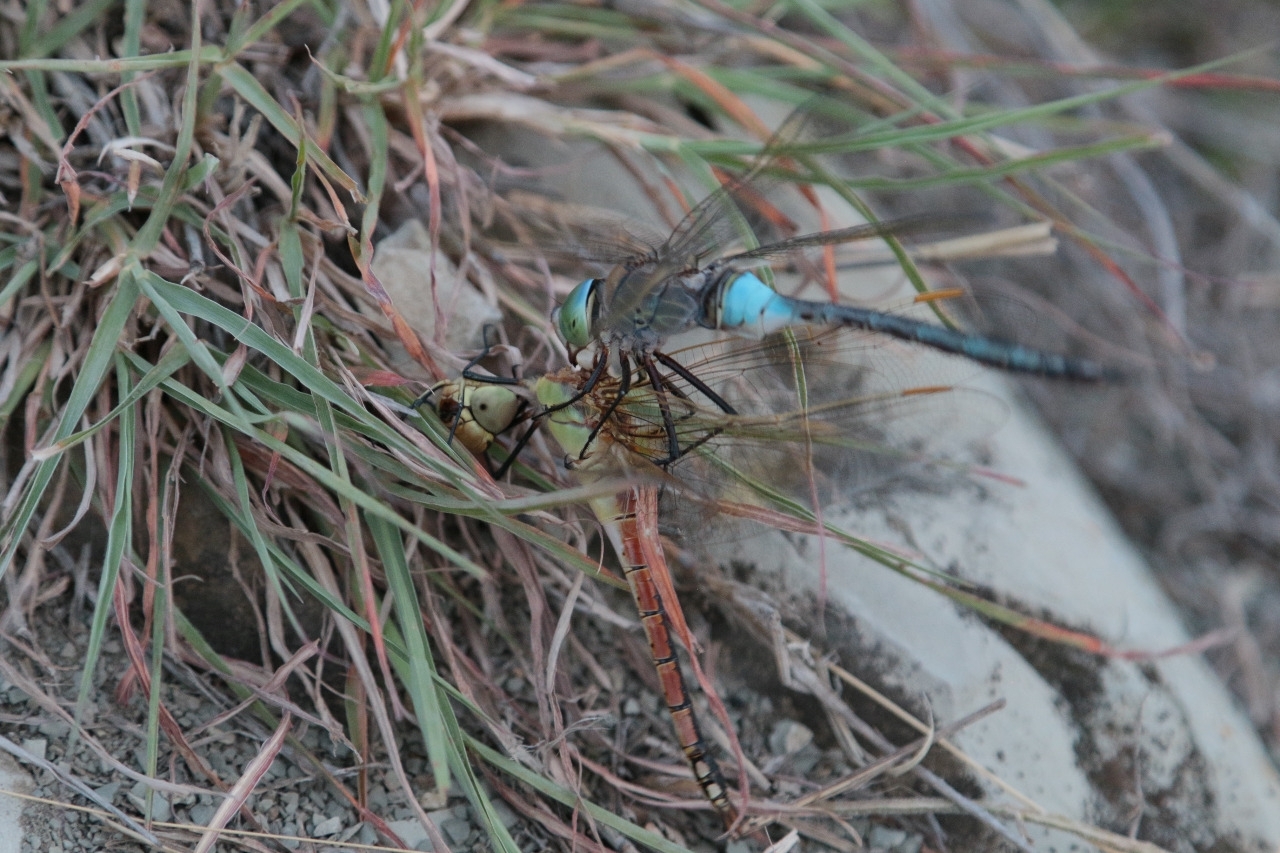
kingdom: Animalia
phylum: Arthropoda
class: Insecta
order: Odonata
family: Aeshnidae
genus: Anax
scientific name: Anax parthenope
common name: Lesser emperor
